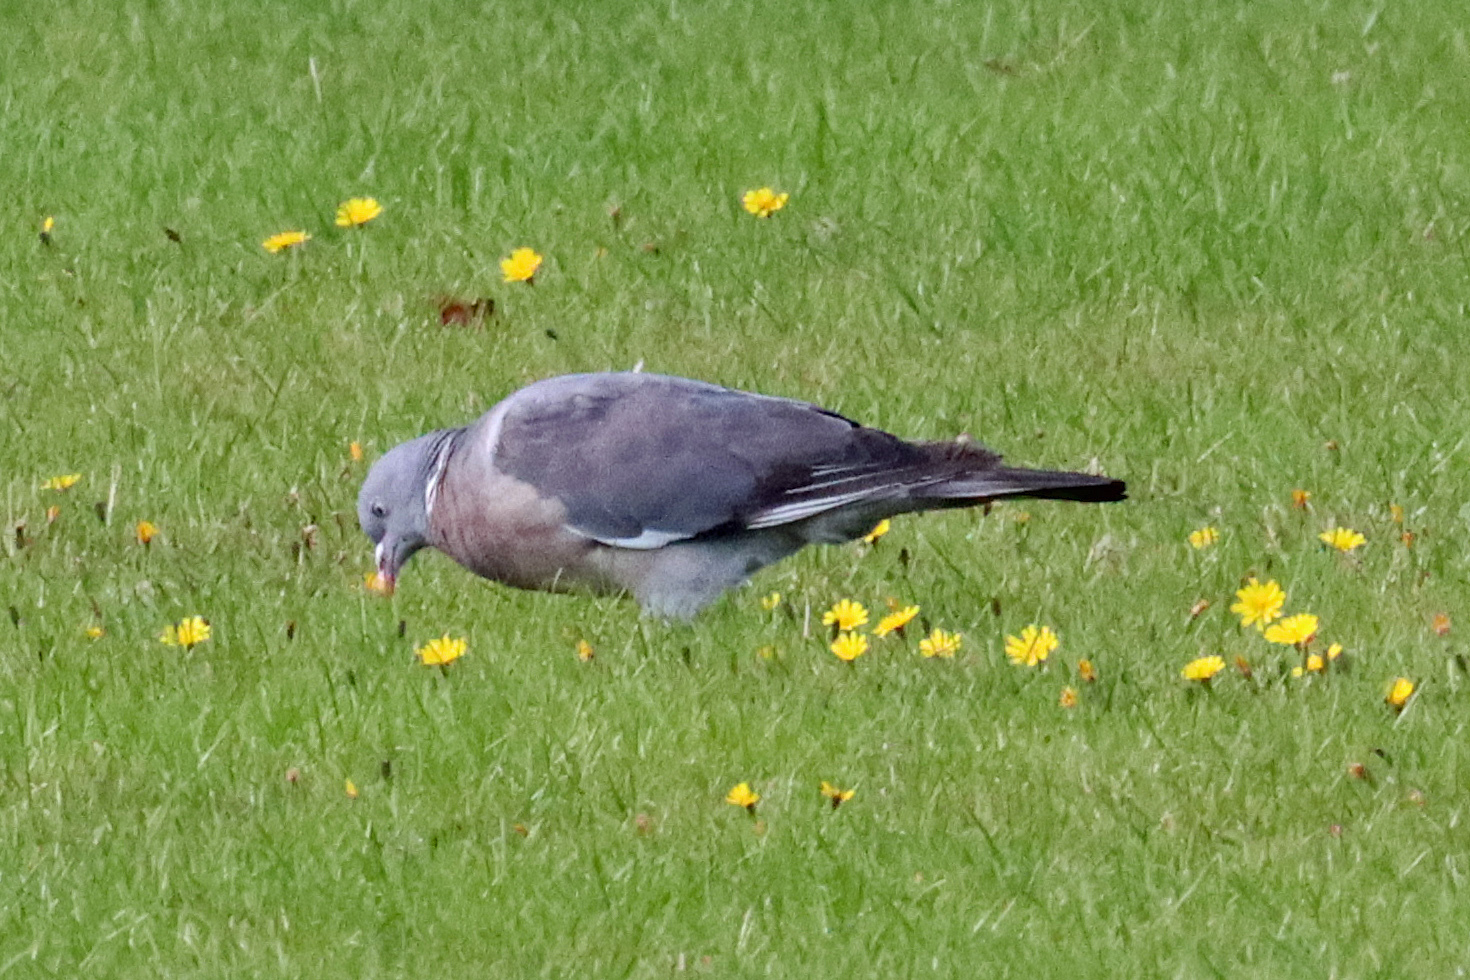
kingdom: Animalia
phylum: Chordata
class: Aves
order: Columbiformes
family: Columbidae
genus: Columba
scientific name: Columba palumbus
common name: Common wood pigeon
